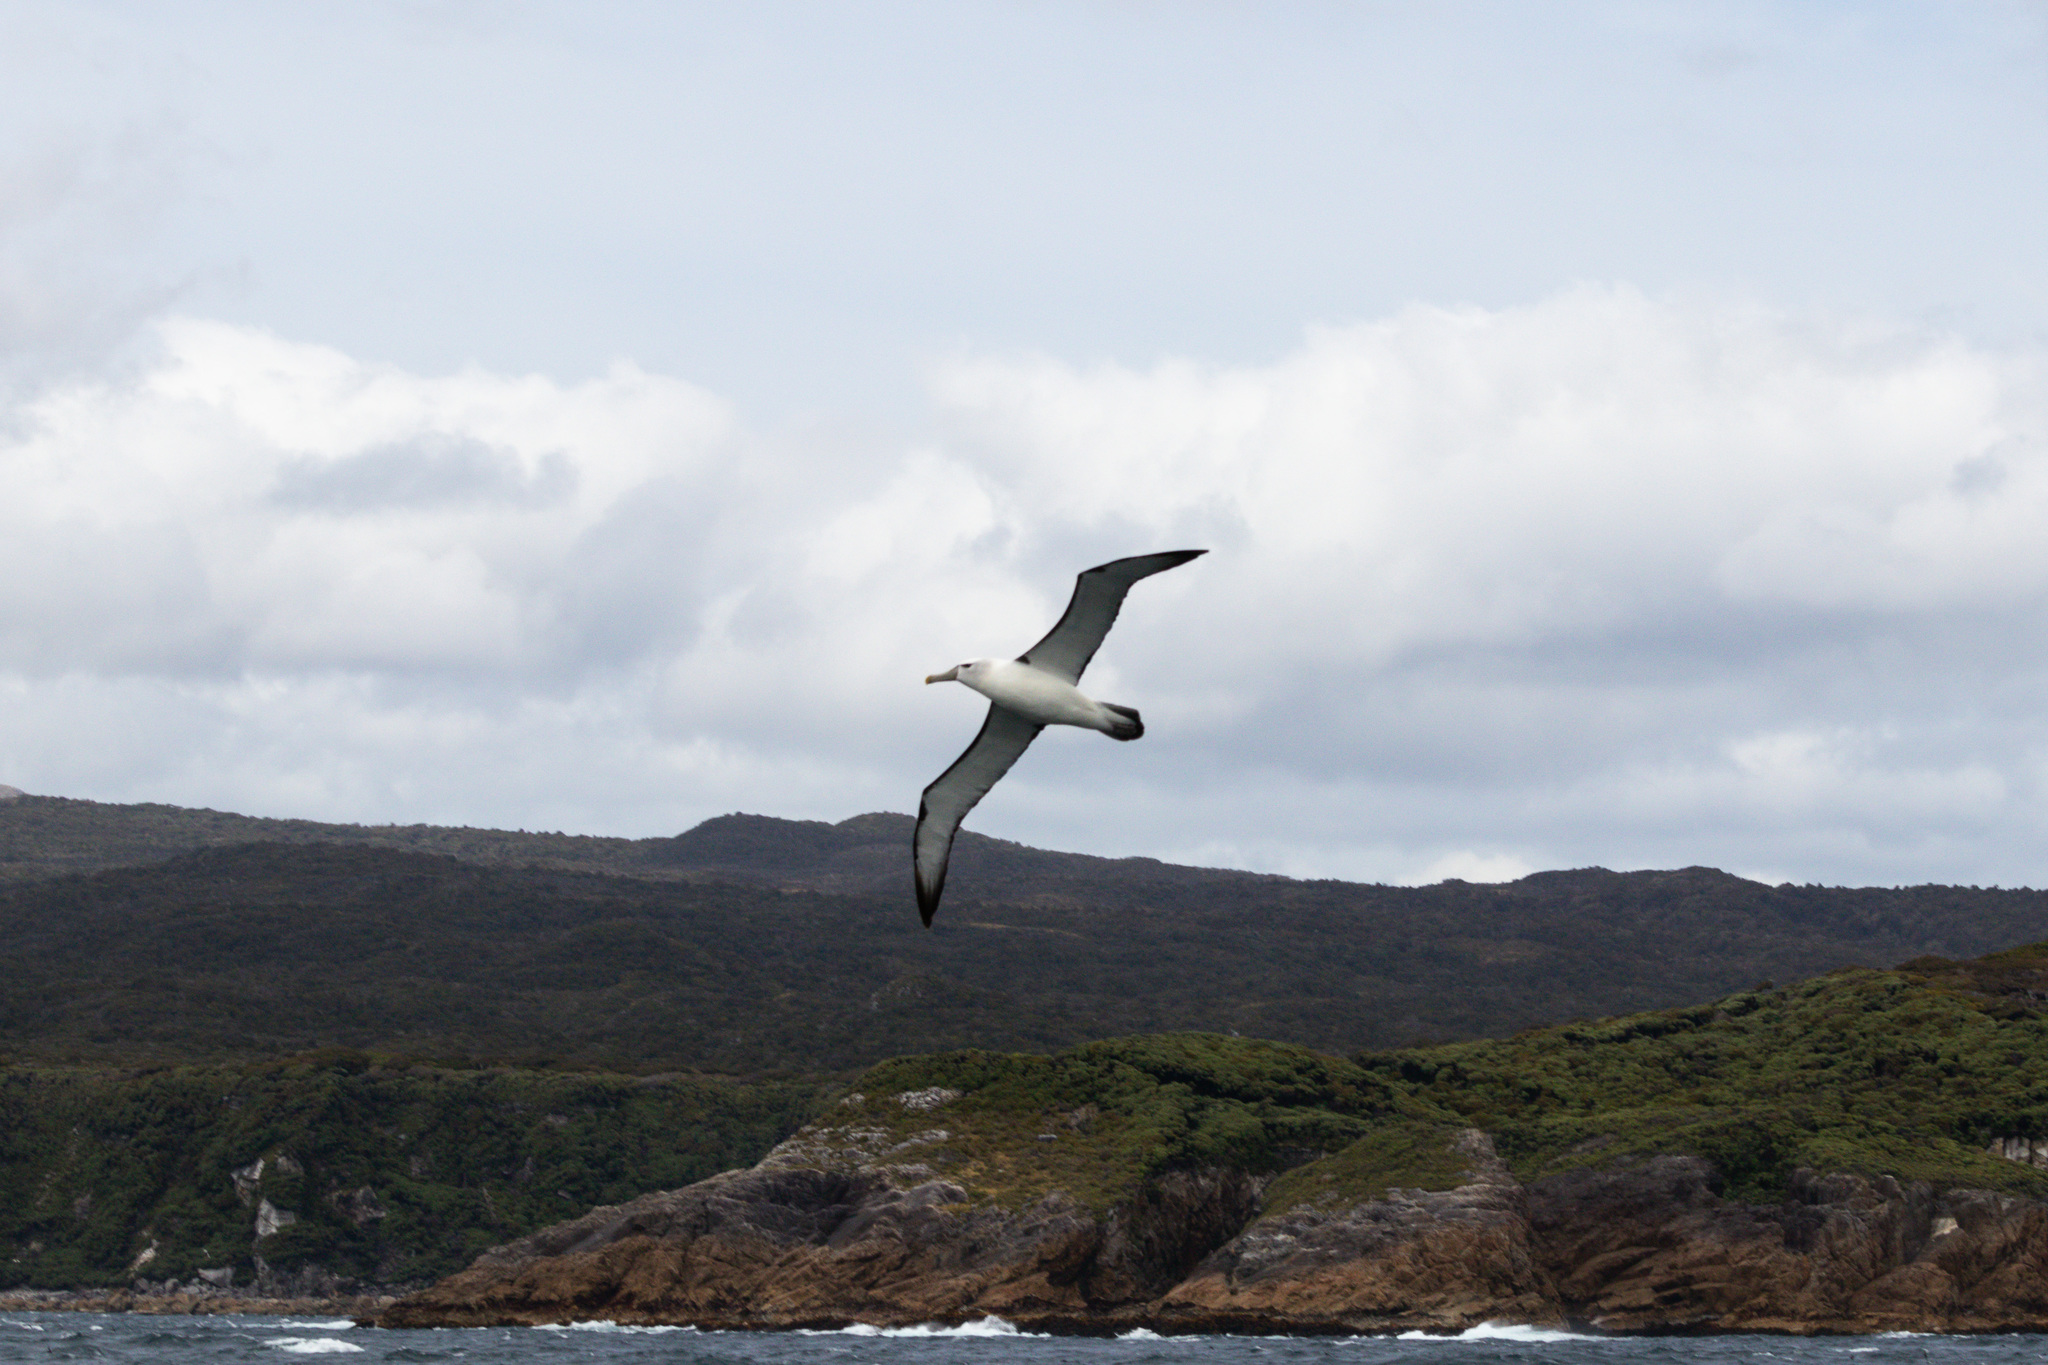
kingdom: Animalia
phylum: Chordata
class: Aves
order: Procellariiformes
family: Diomedeidae
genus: Thalassarche
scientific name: Thalassarche cauta
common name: Shy albatross
